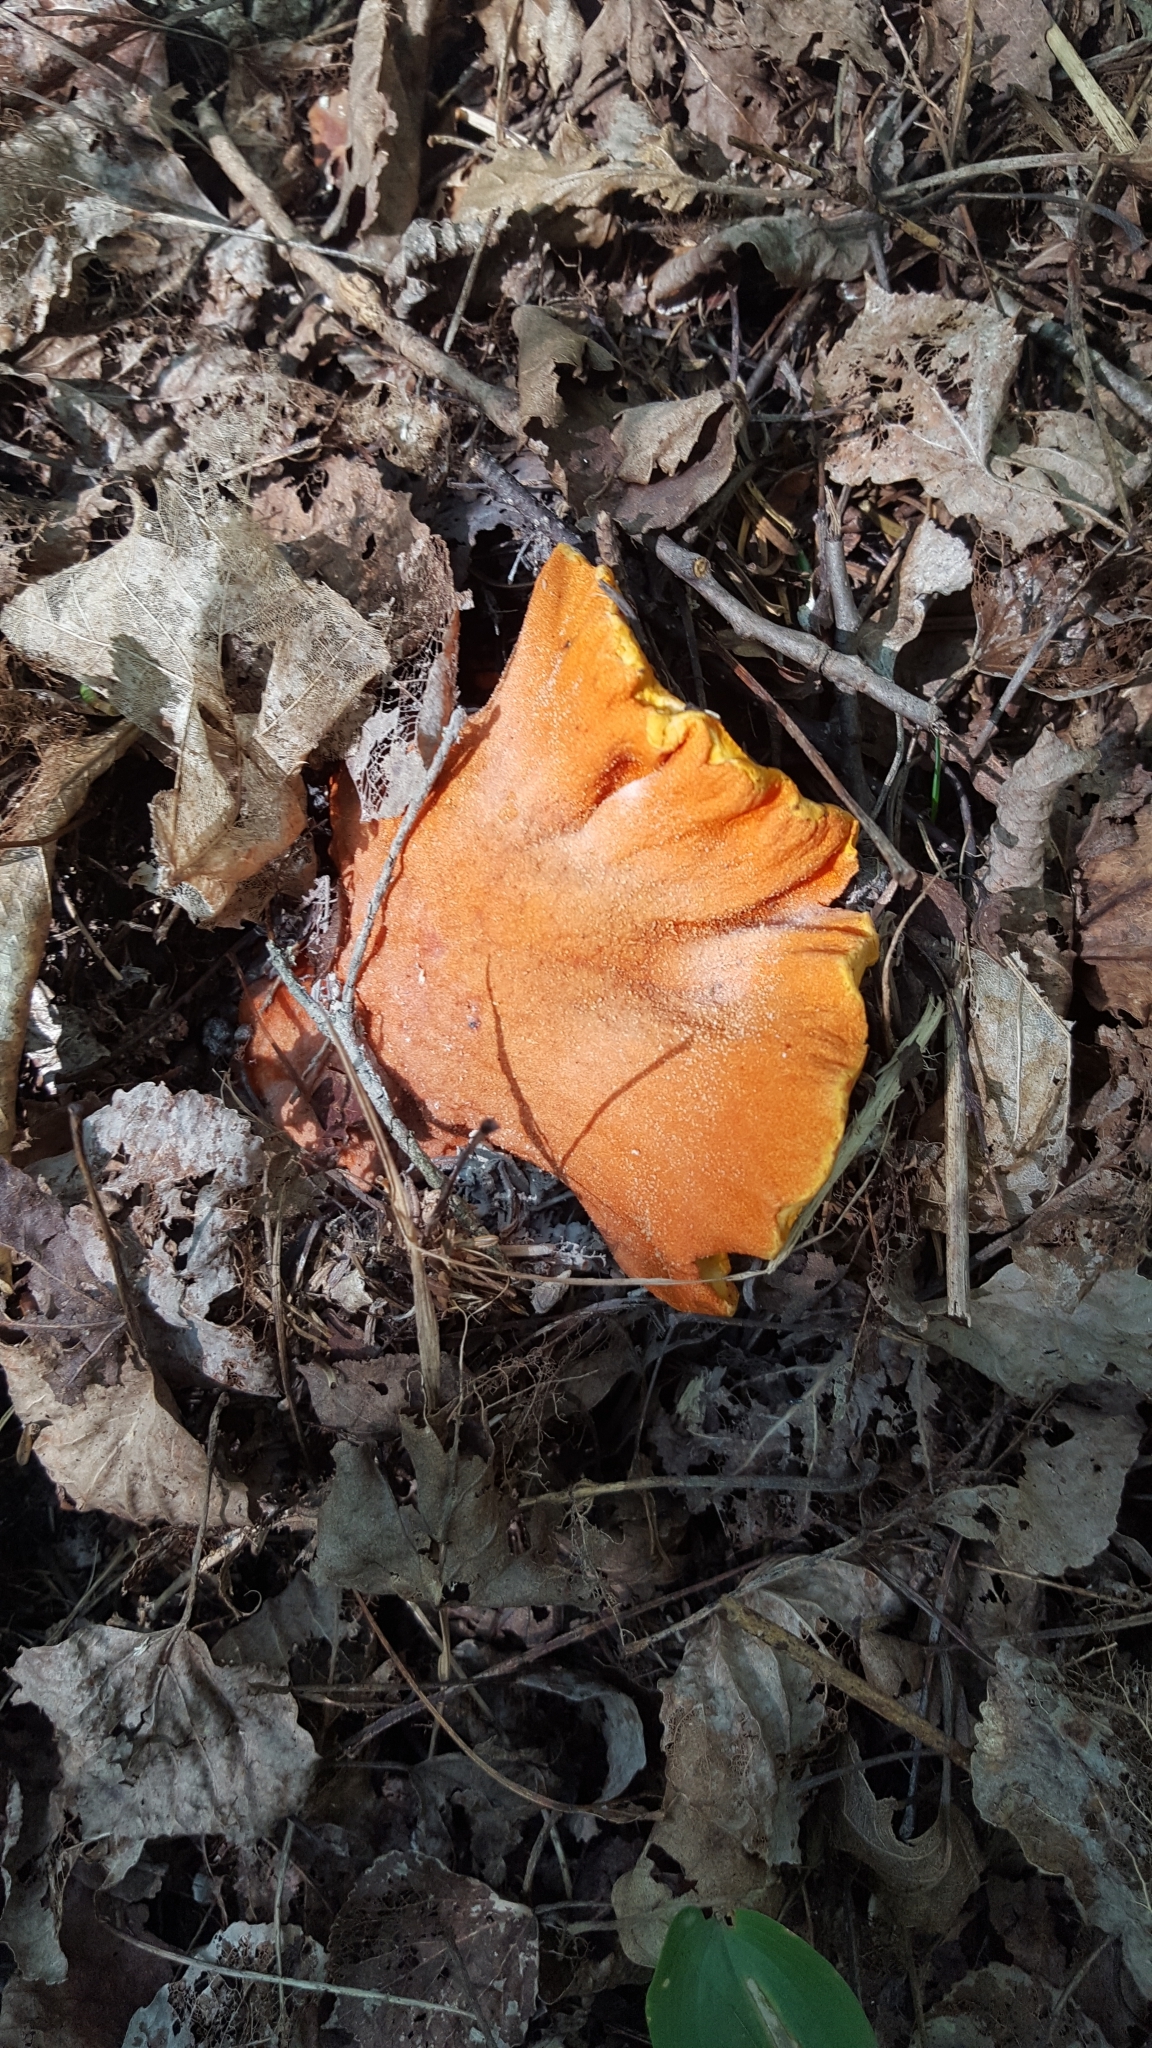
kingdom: Fungi
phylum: Ascomycota
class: Sordariomycetes
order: Hypocreales
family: Hypocreaceae
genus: Hypomyces
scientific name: Hypomyces lactifluorum
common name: Lobster mushroom
